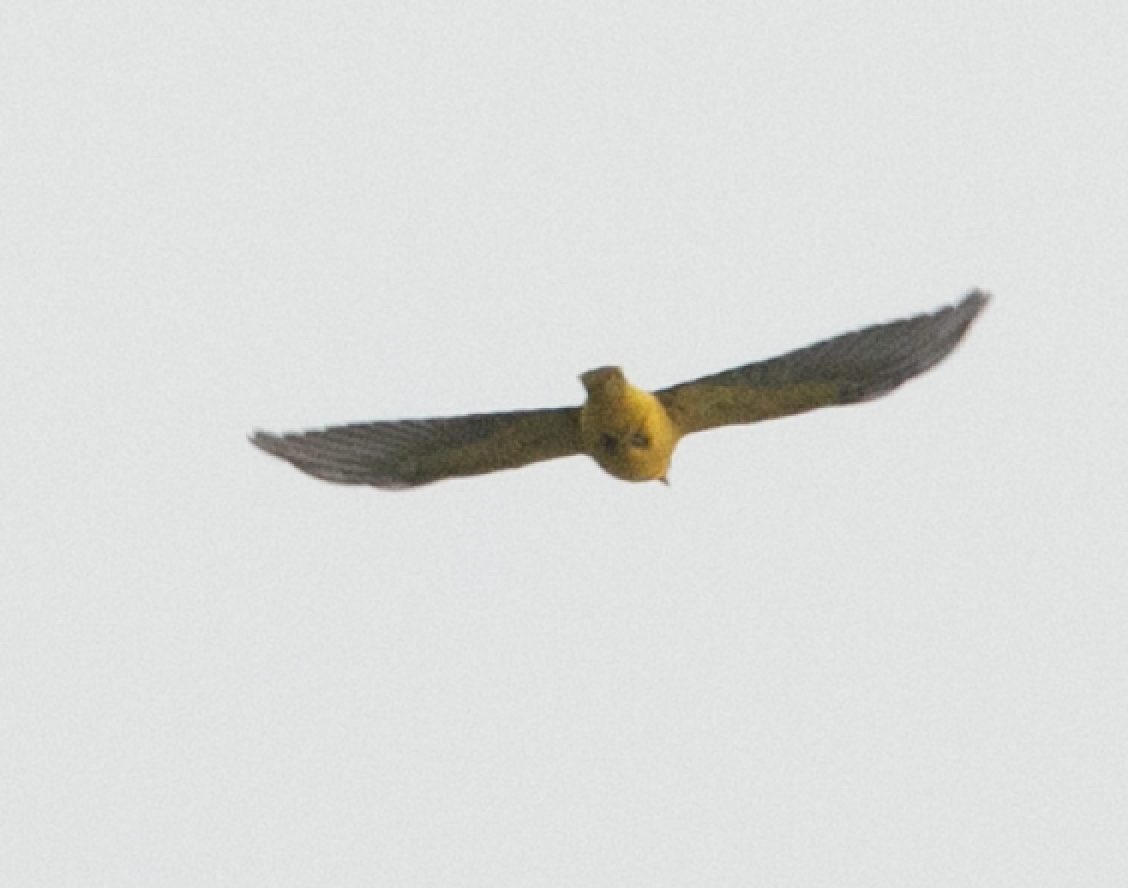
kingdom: Animalia
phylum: Chordata
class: Aves
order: Passeriformes
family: Oriolidae
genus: Oriolus
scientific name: Oriolus oriolus
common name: Eurasian golden oriole
